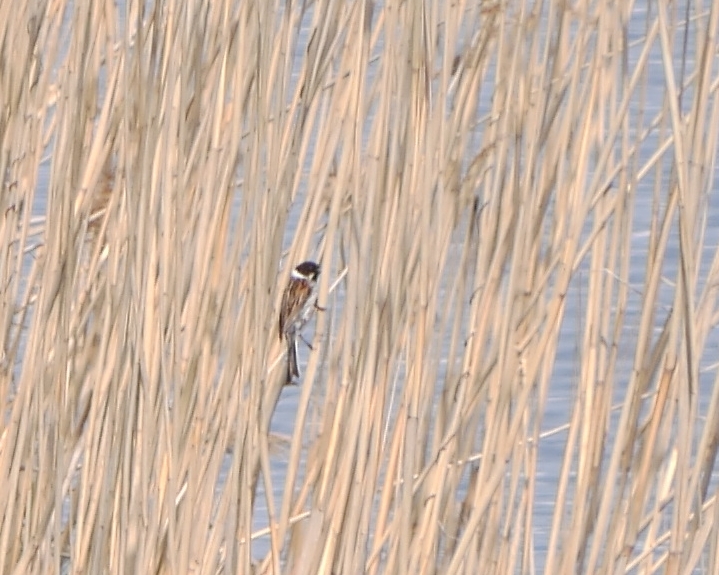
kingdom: Animalia
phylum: Chordata
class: Aves
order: Passeriformes
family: Emberizidae
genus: Emberiza
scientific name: Emberiza schoeniclus
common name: Reed bunting
